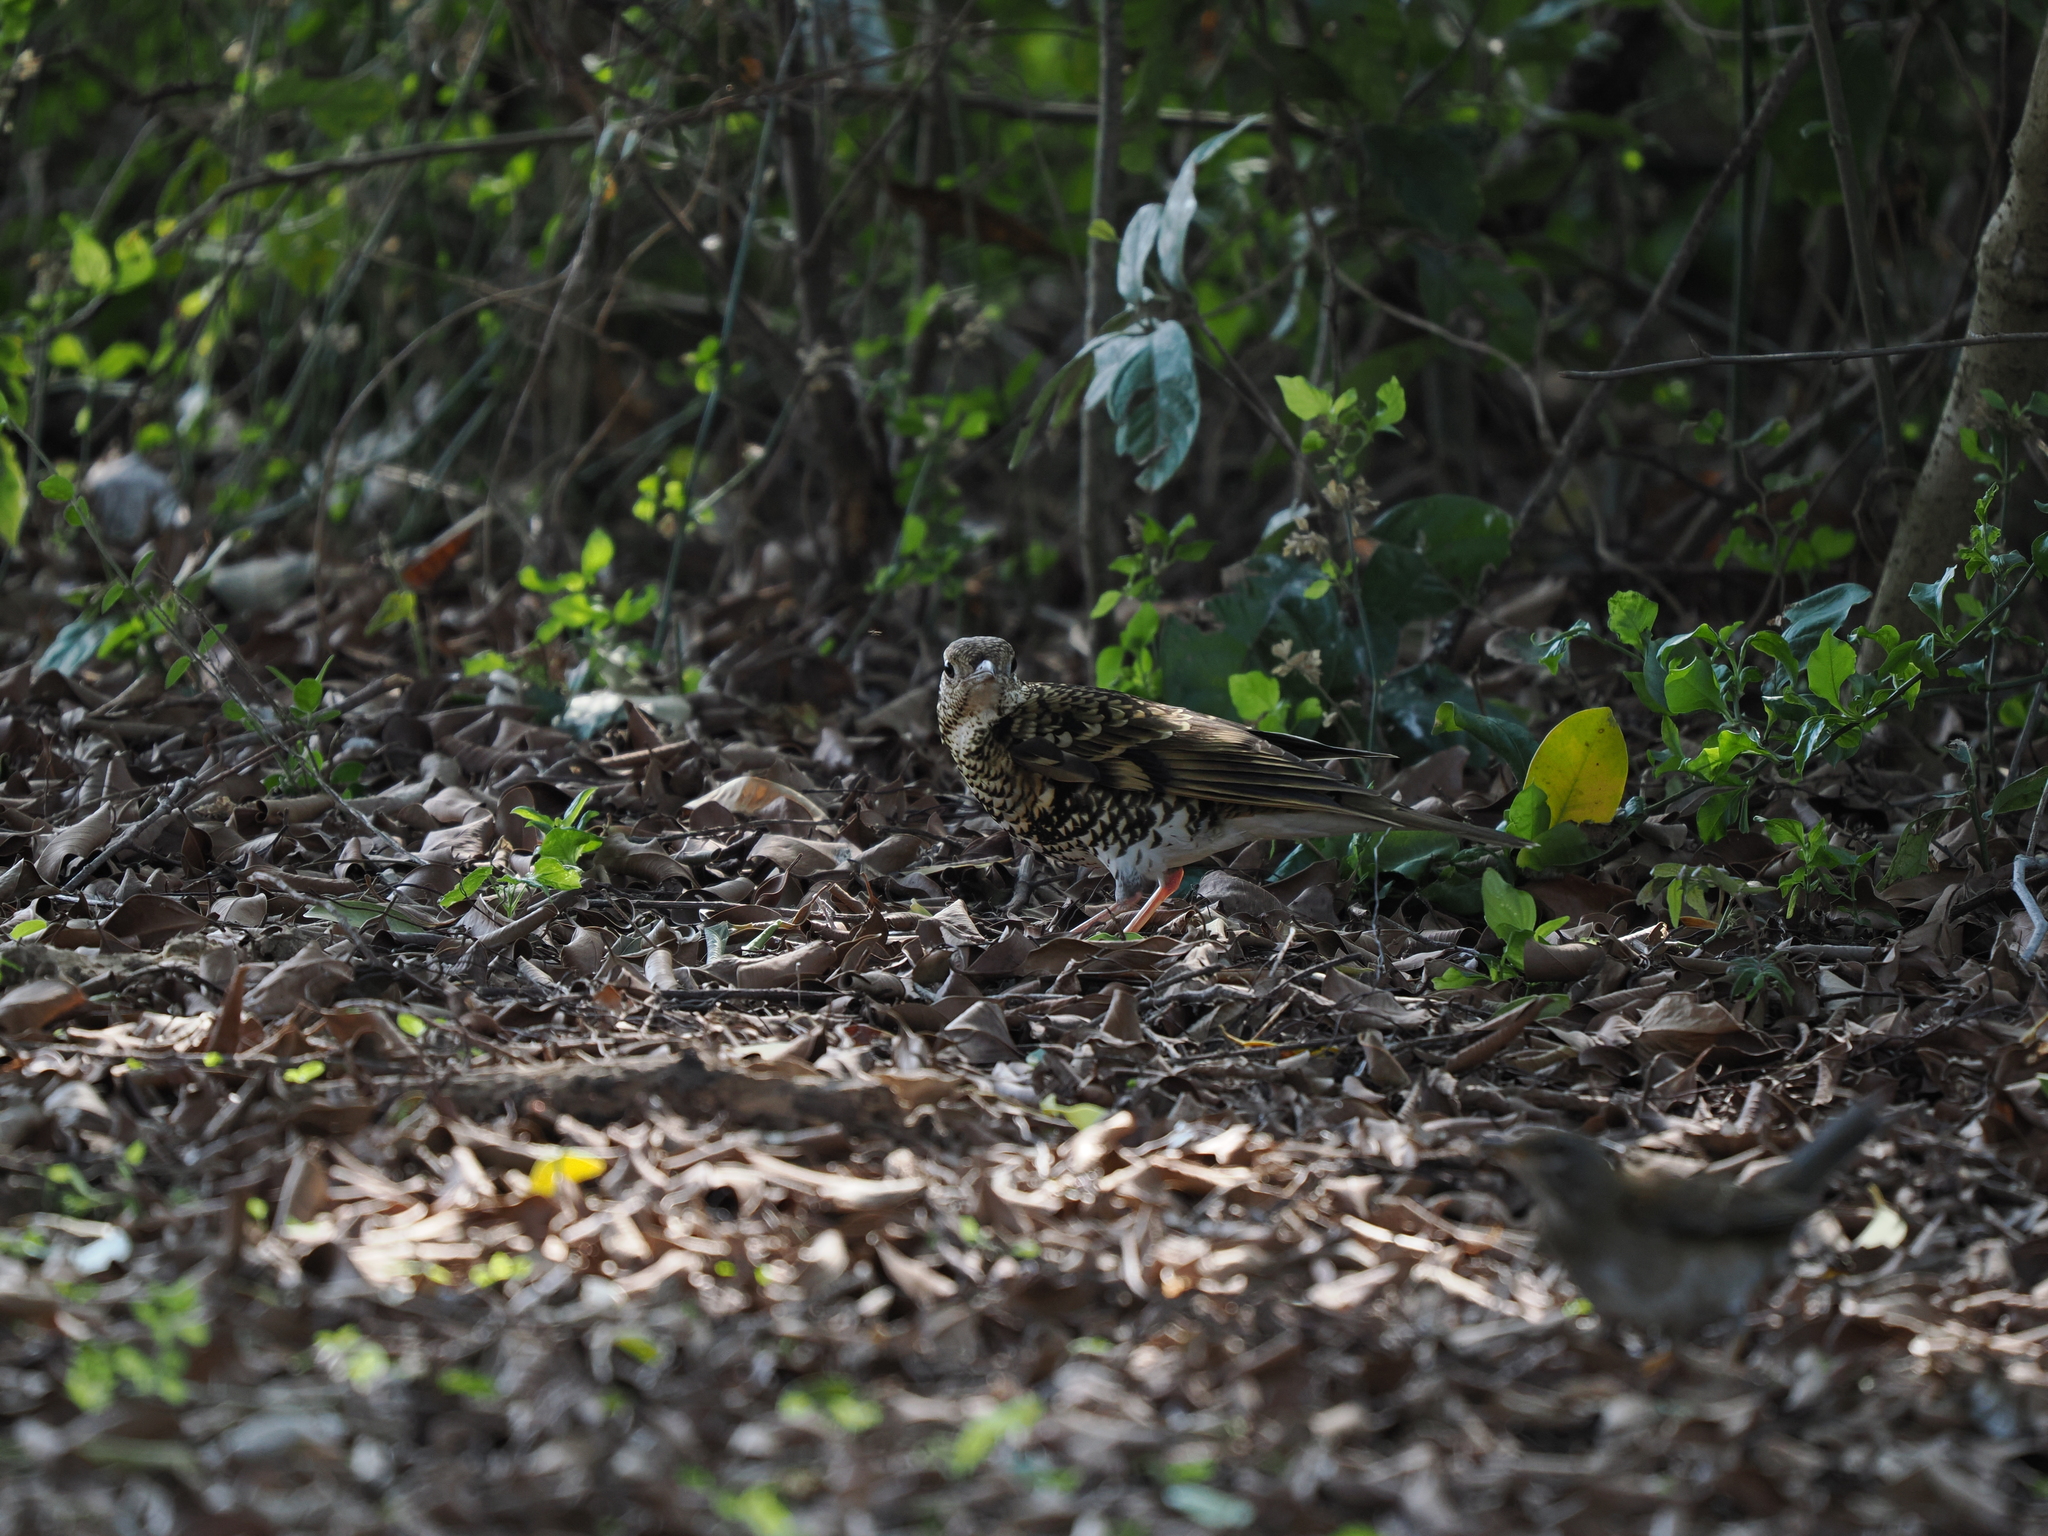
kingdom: Animalia
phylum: Chordata
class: Aves
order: Passeriformes
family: Turdidae
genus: Zoothera
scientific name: Zoothera aurea
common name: White's thrush
